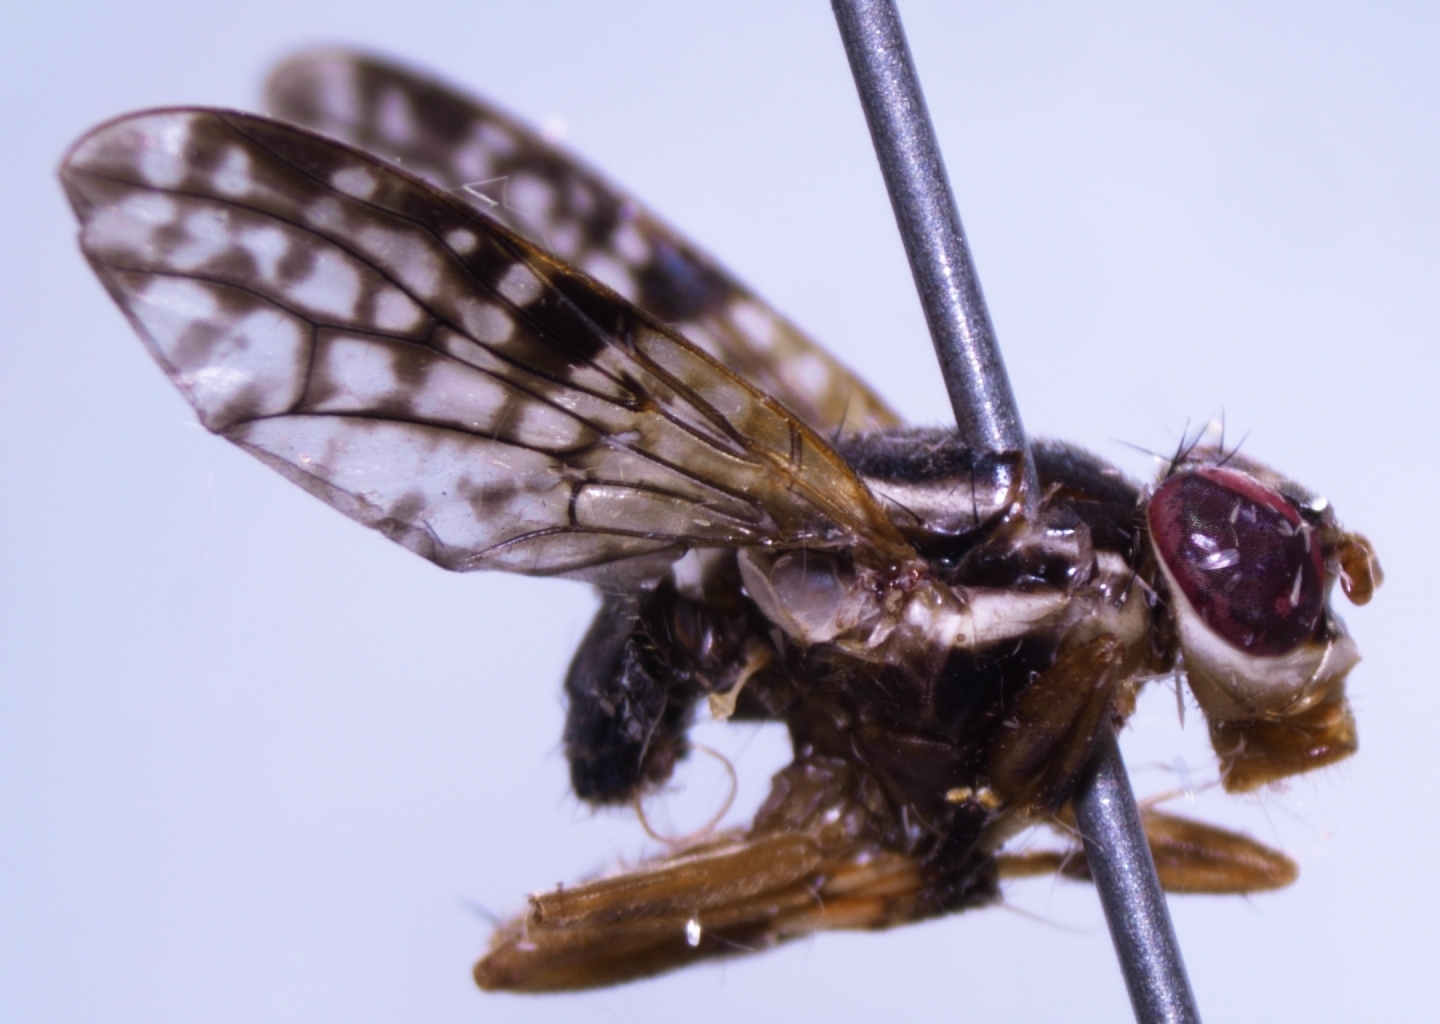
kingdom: Animalia
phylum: Arthropoda
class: Insecta
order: Diptera
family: Platystomatidae
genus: Scholastes
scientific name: Scholastes lonchifer
